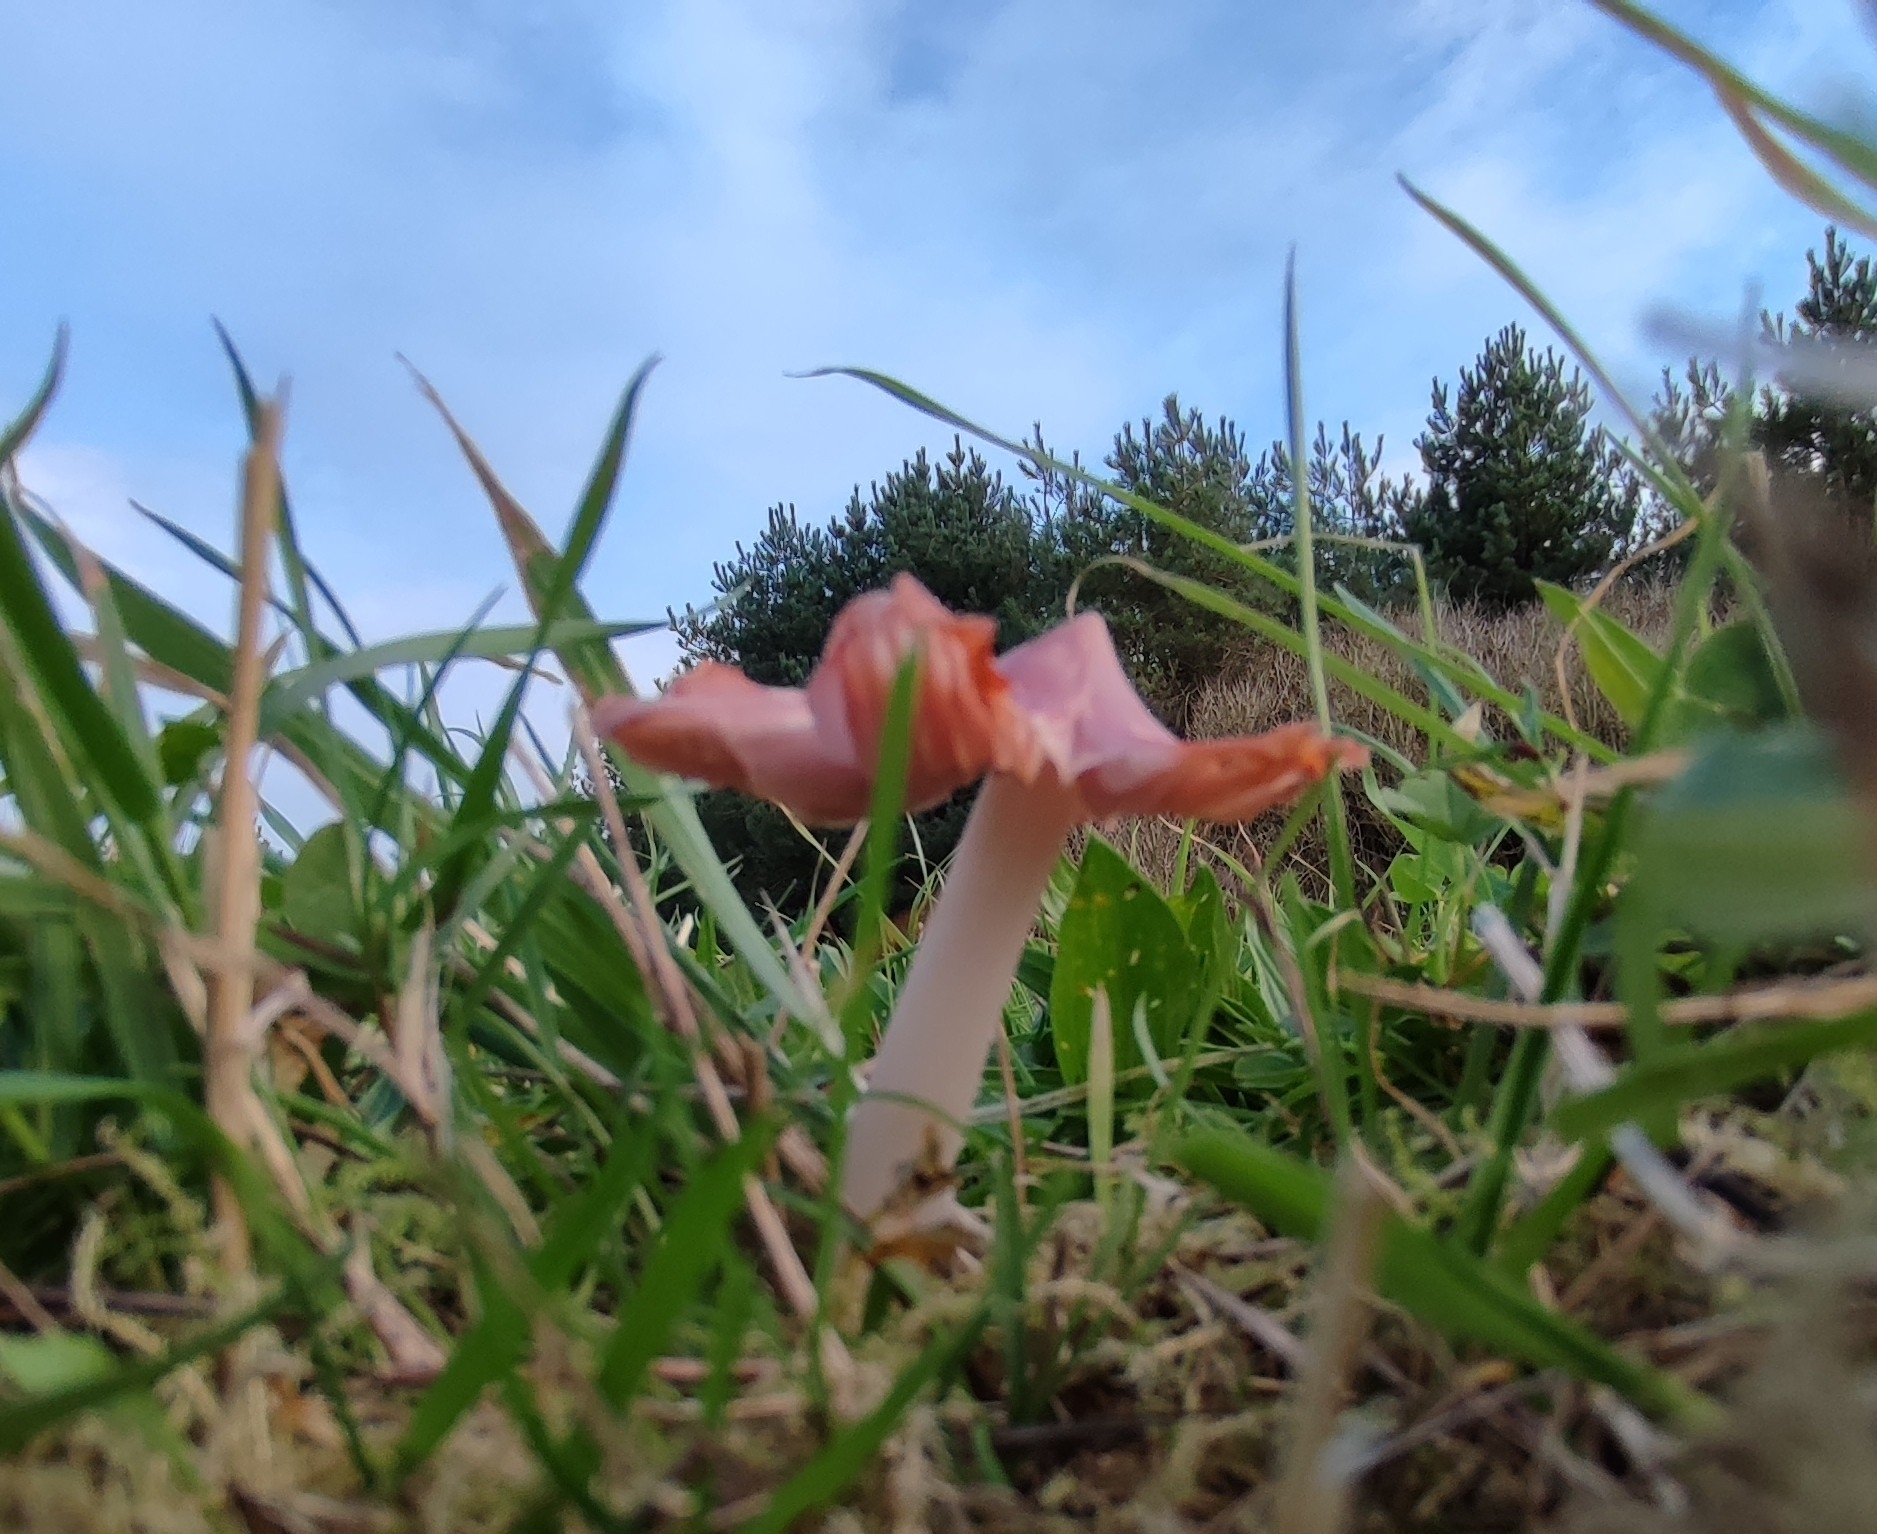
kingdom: Fungi
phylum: Basidiomycota
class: Agaricomycetes
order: Agaricales
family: Hygrophoraceae
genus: Porpolomopsis
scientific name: Porpolomopsis calyptriformis
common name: Pink waxcap
